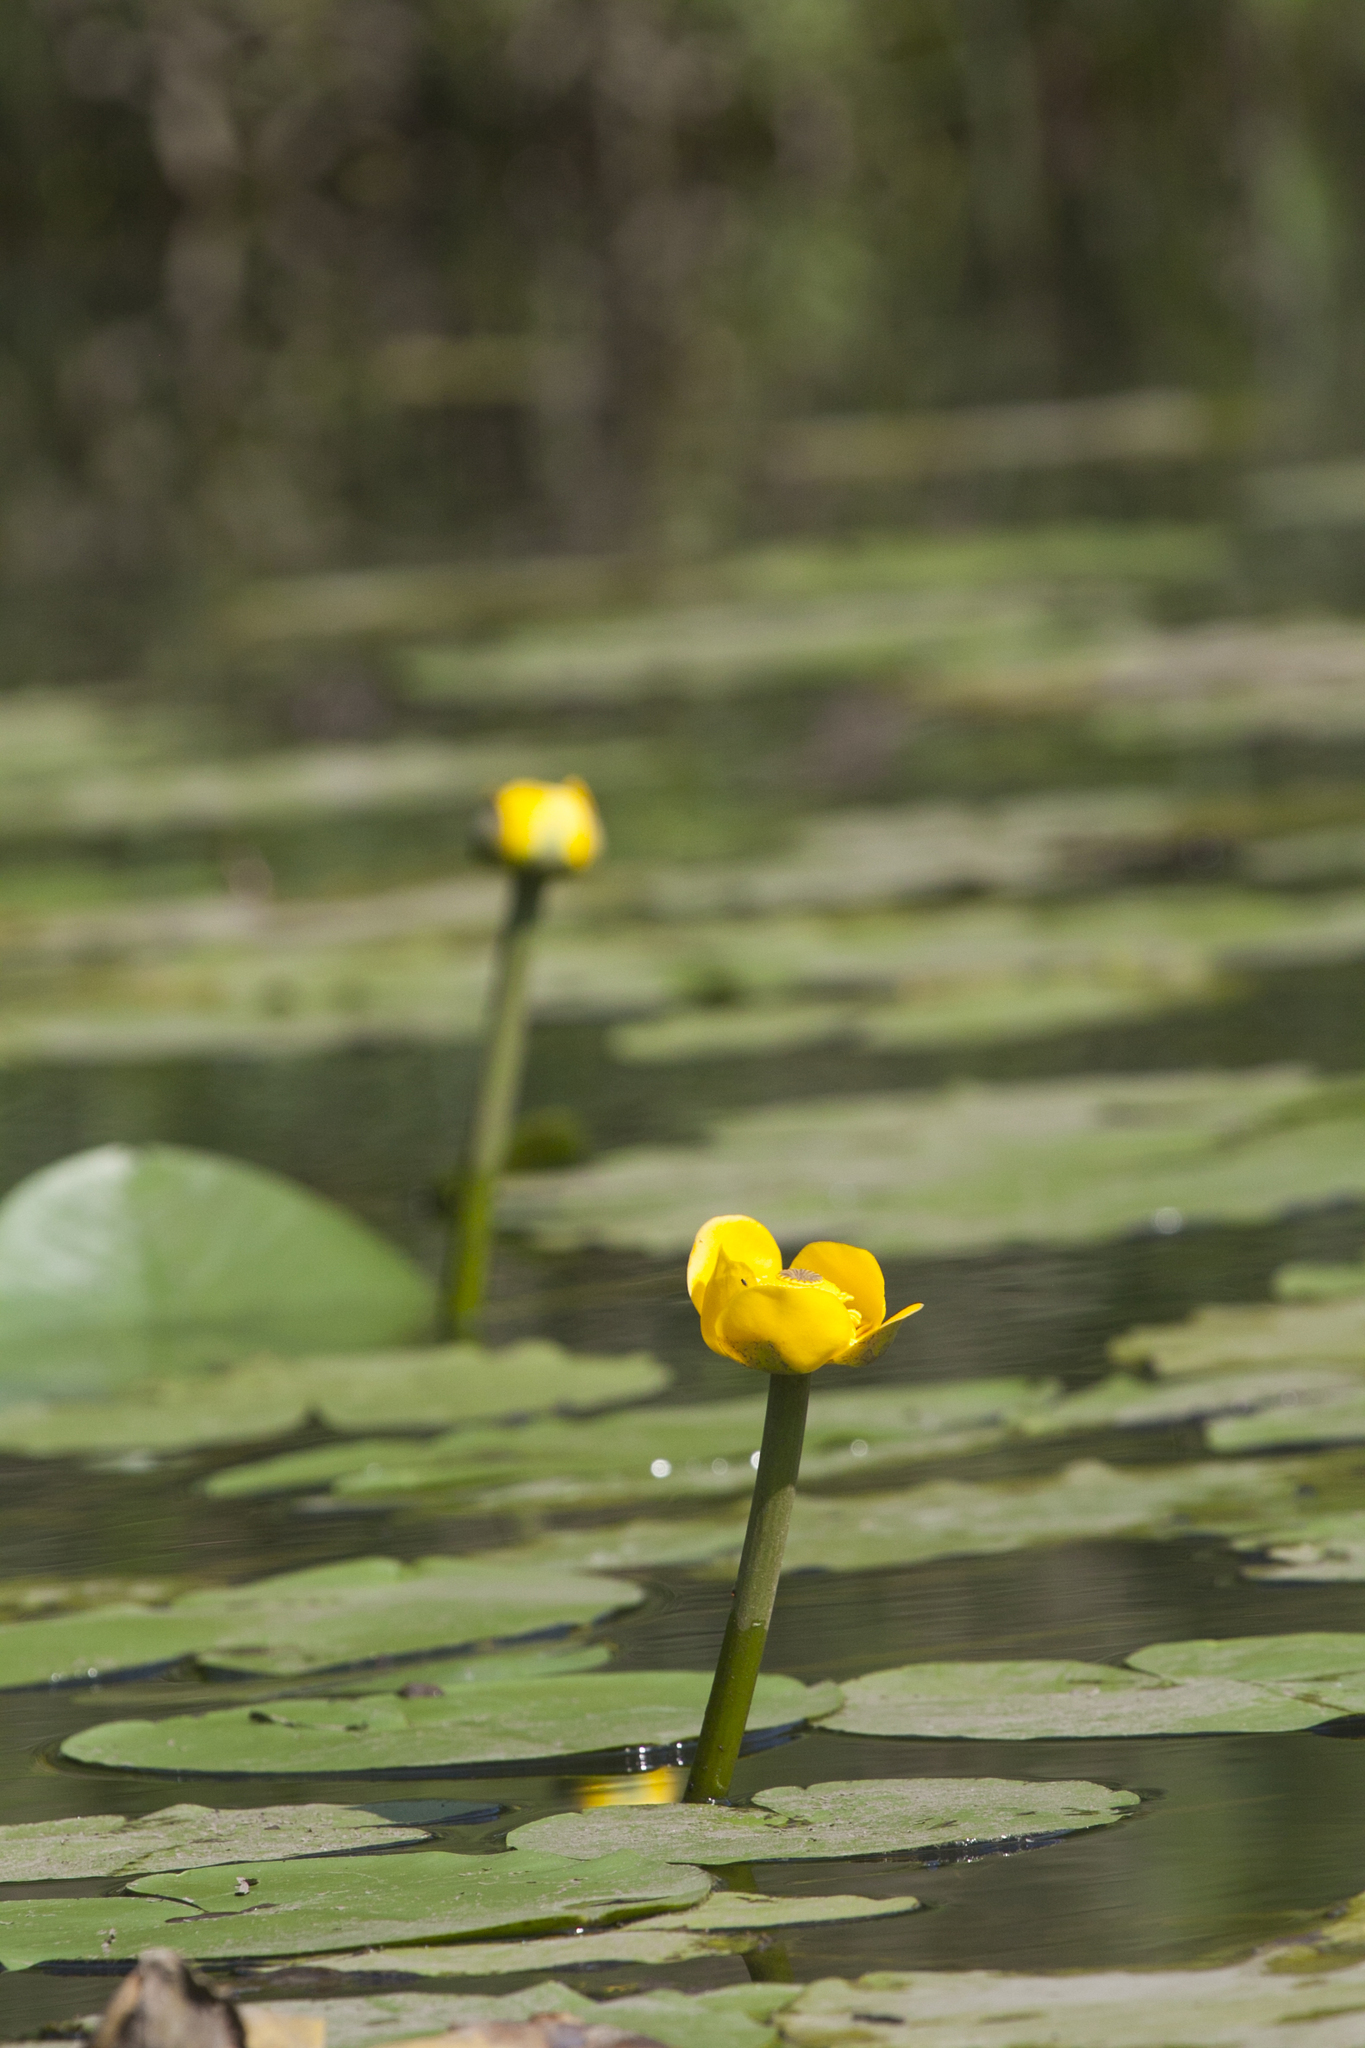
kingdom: Plantae
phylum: Tracheophyta
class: Magnoliopsida
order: Nymphaeales
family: Nymphaeaceae
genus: Nuphar
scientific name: Nuphar lutea
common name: Yellow water-lily
